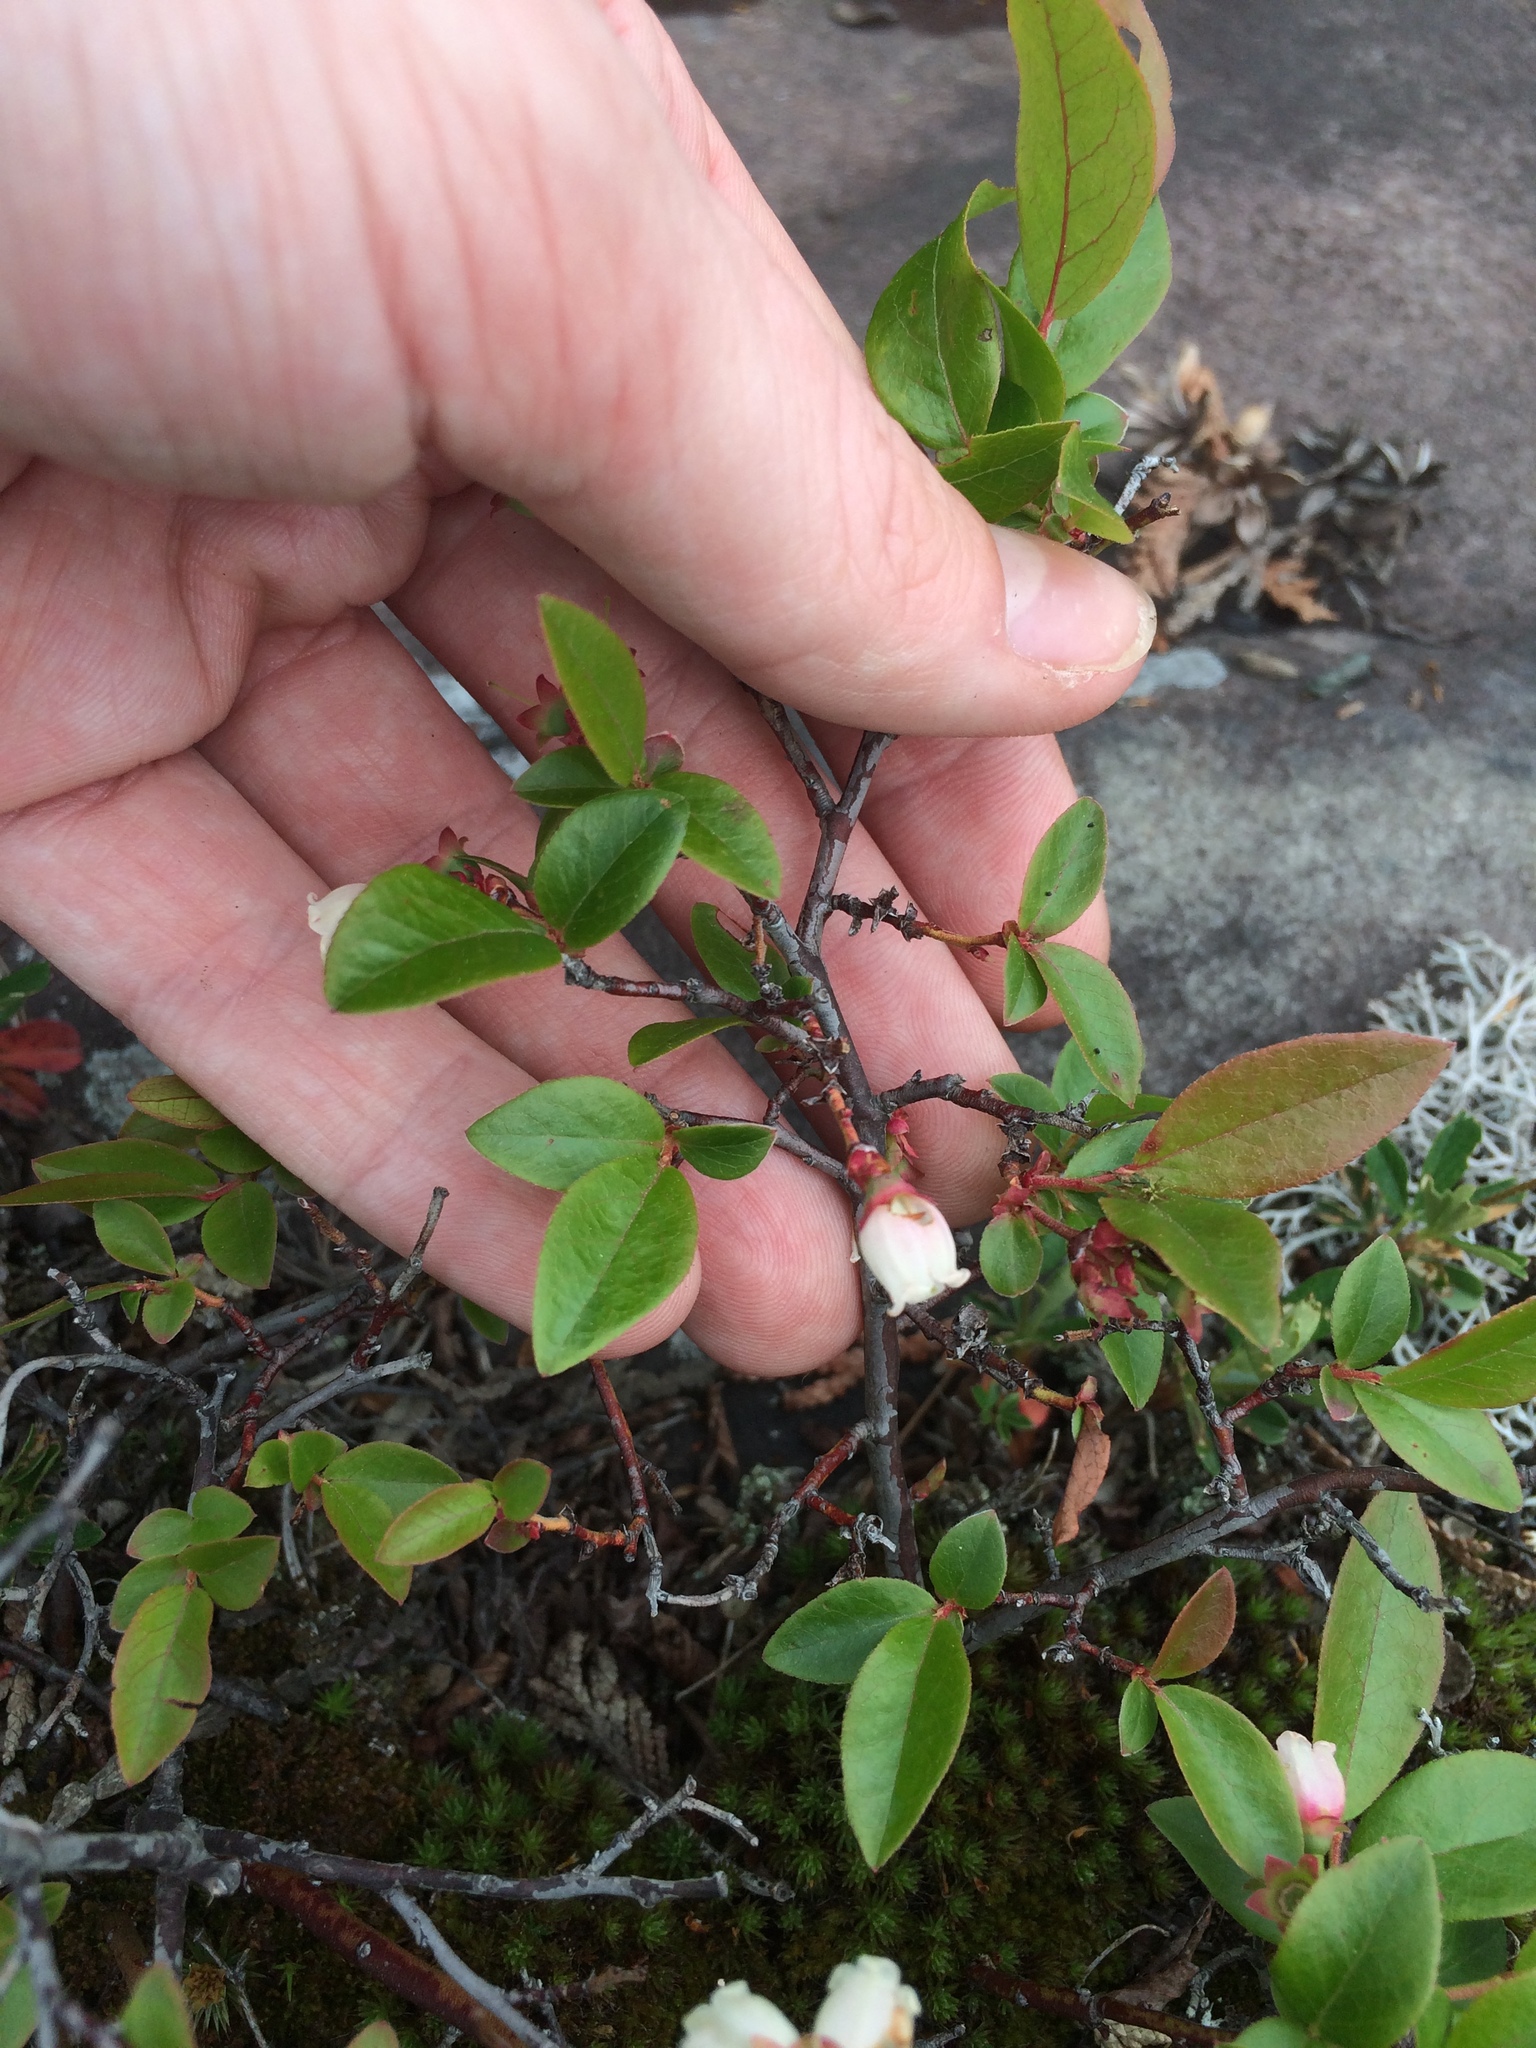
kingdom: Plantae
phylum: Tracheophyta
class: Magnoliopsida
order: Ericales
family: Ericaceae
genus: Vaccinium
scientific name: Vaccinium angustifolium
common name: Early lowbush blueberry
